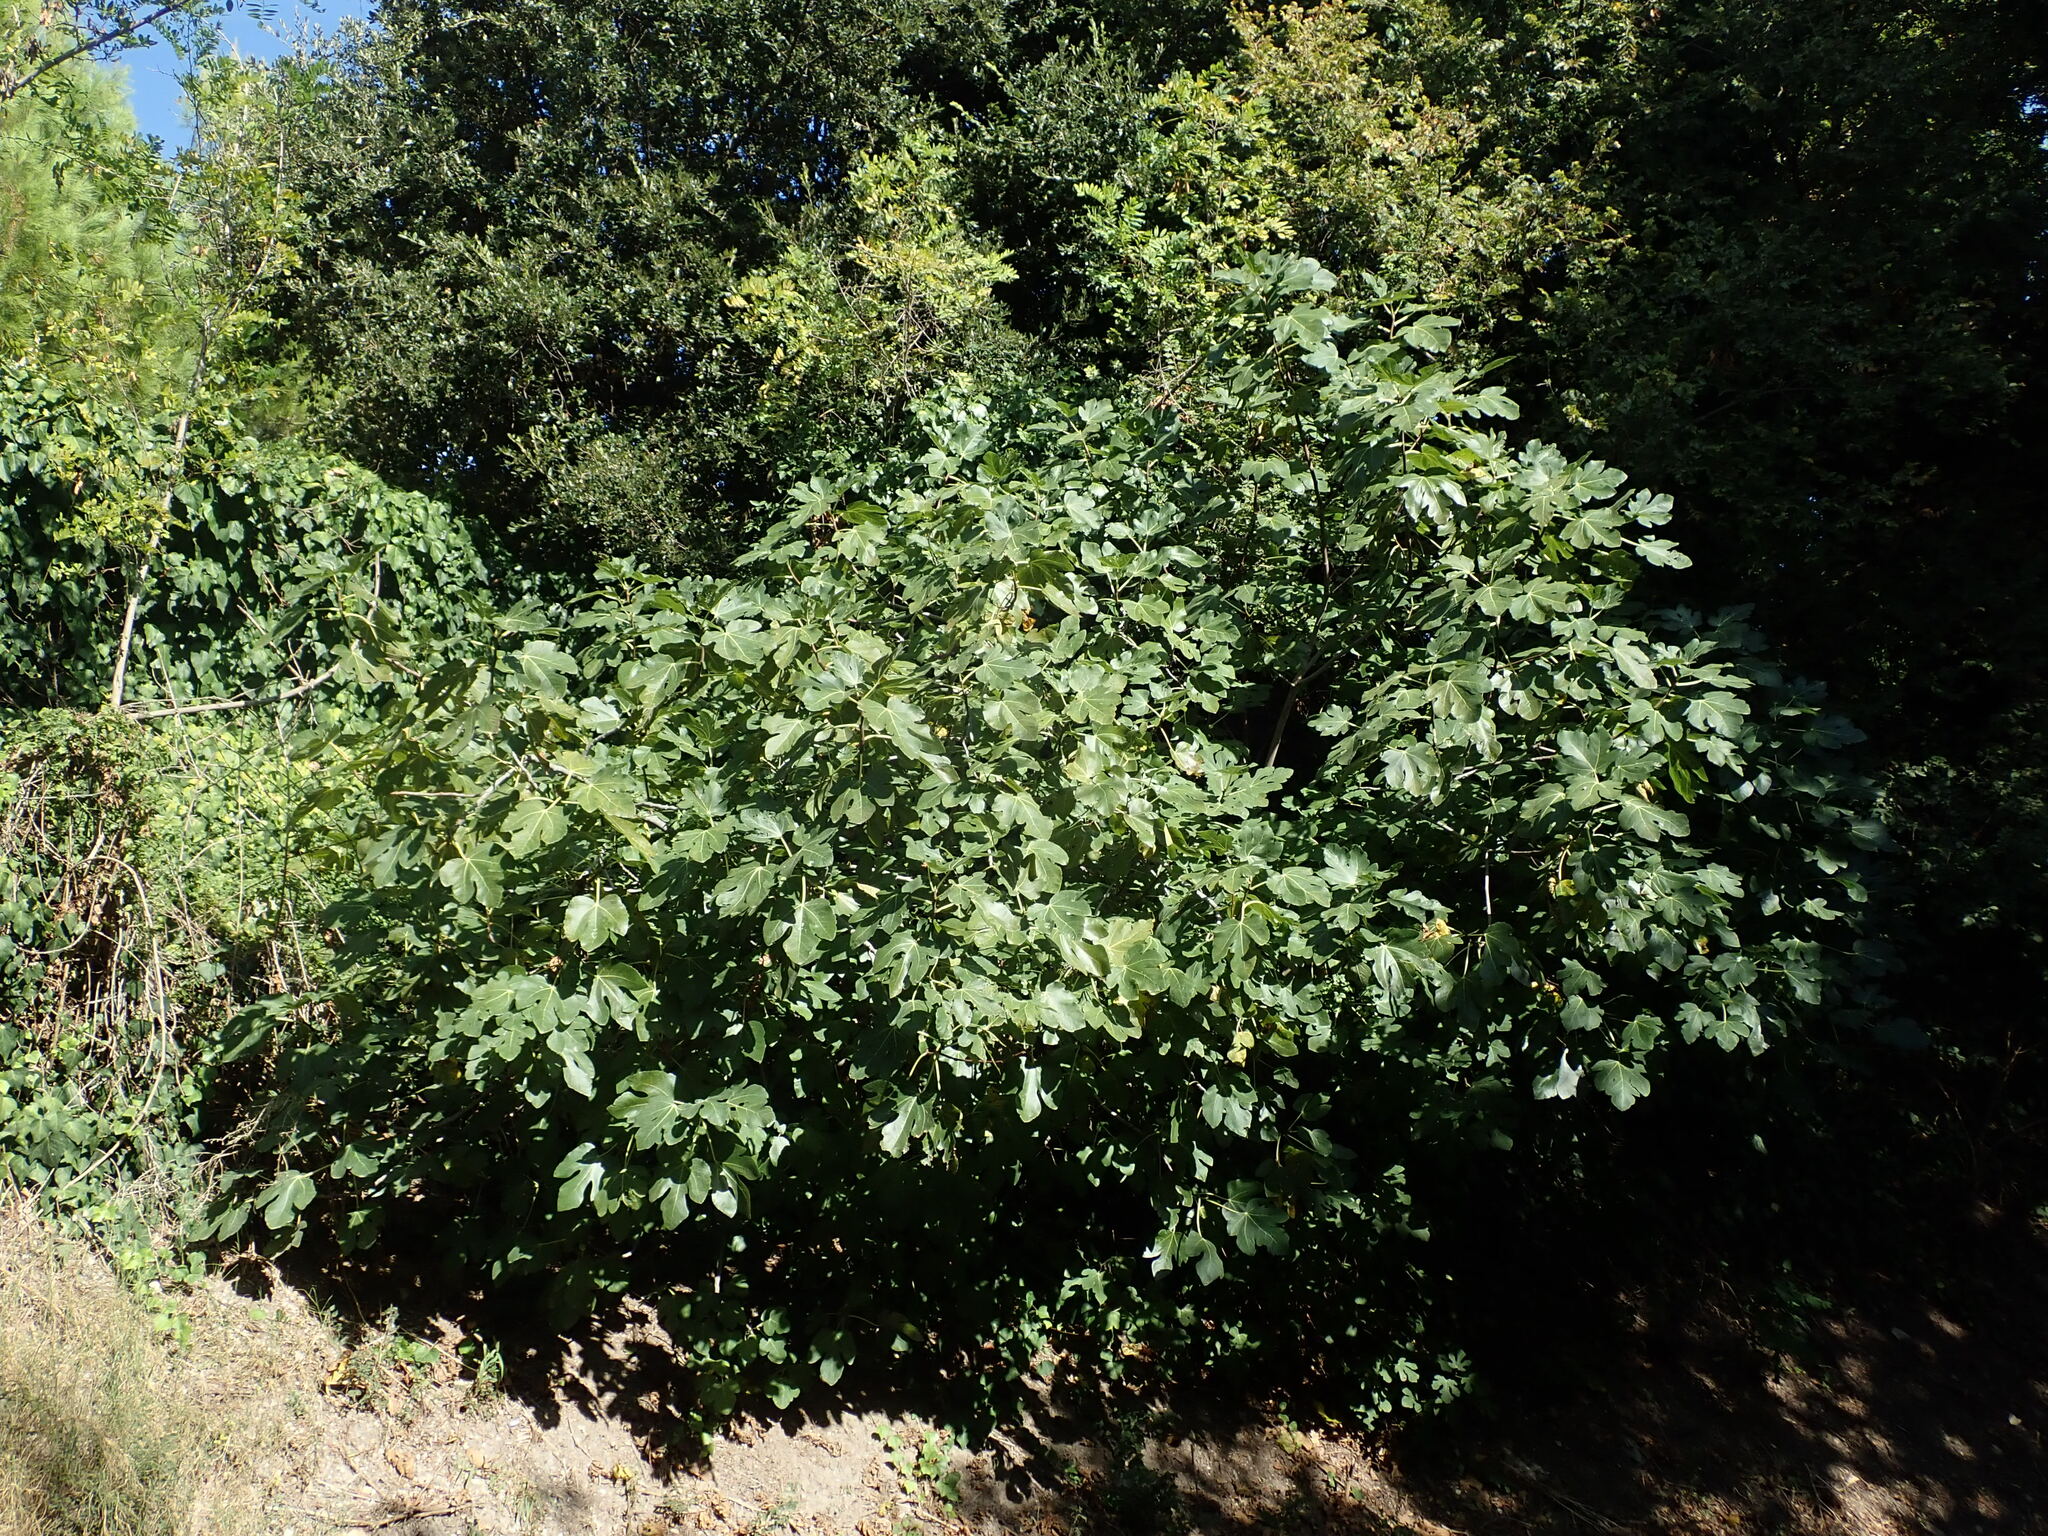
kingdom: Plantae
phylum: Tracheophyta
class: Magnoliopsida
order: Rosales
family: Moraceae
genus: Ficus
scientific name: Ficus carica
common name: Fig
